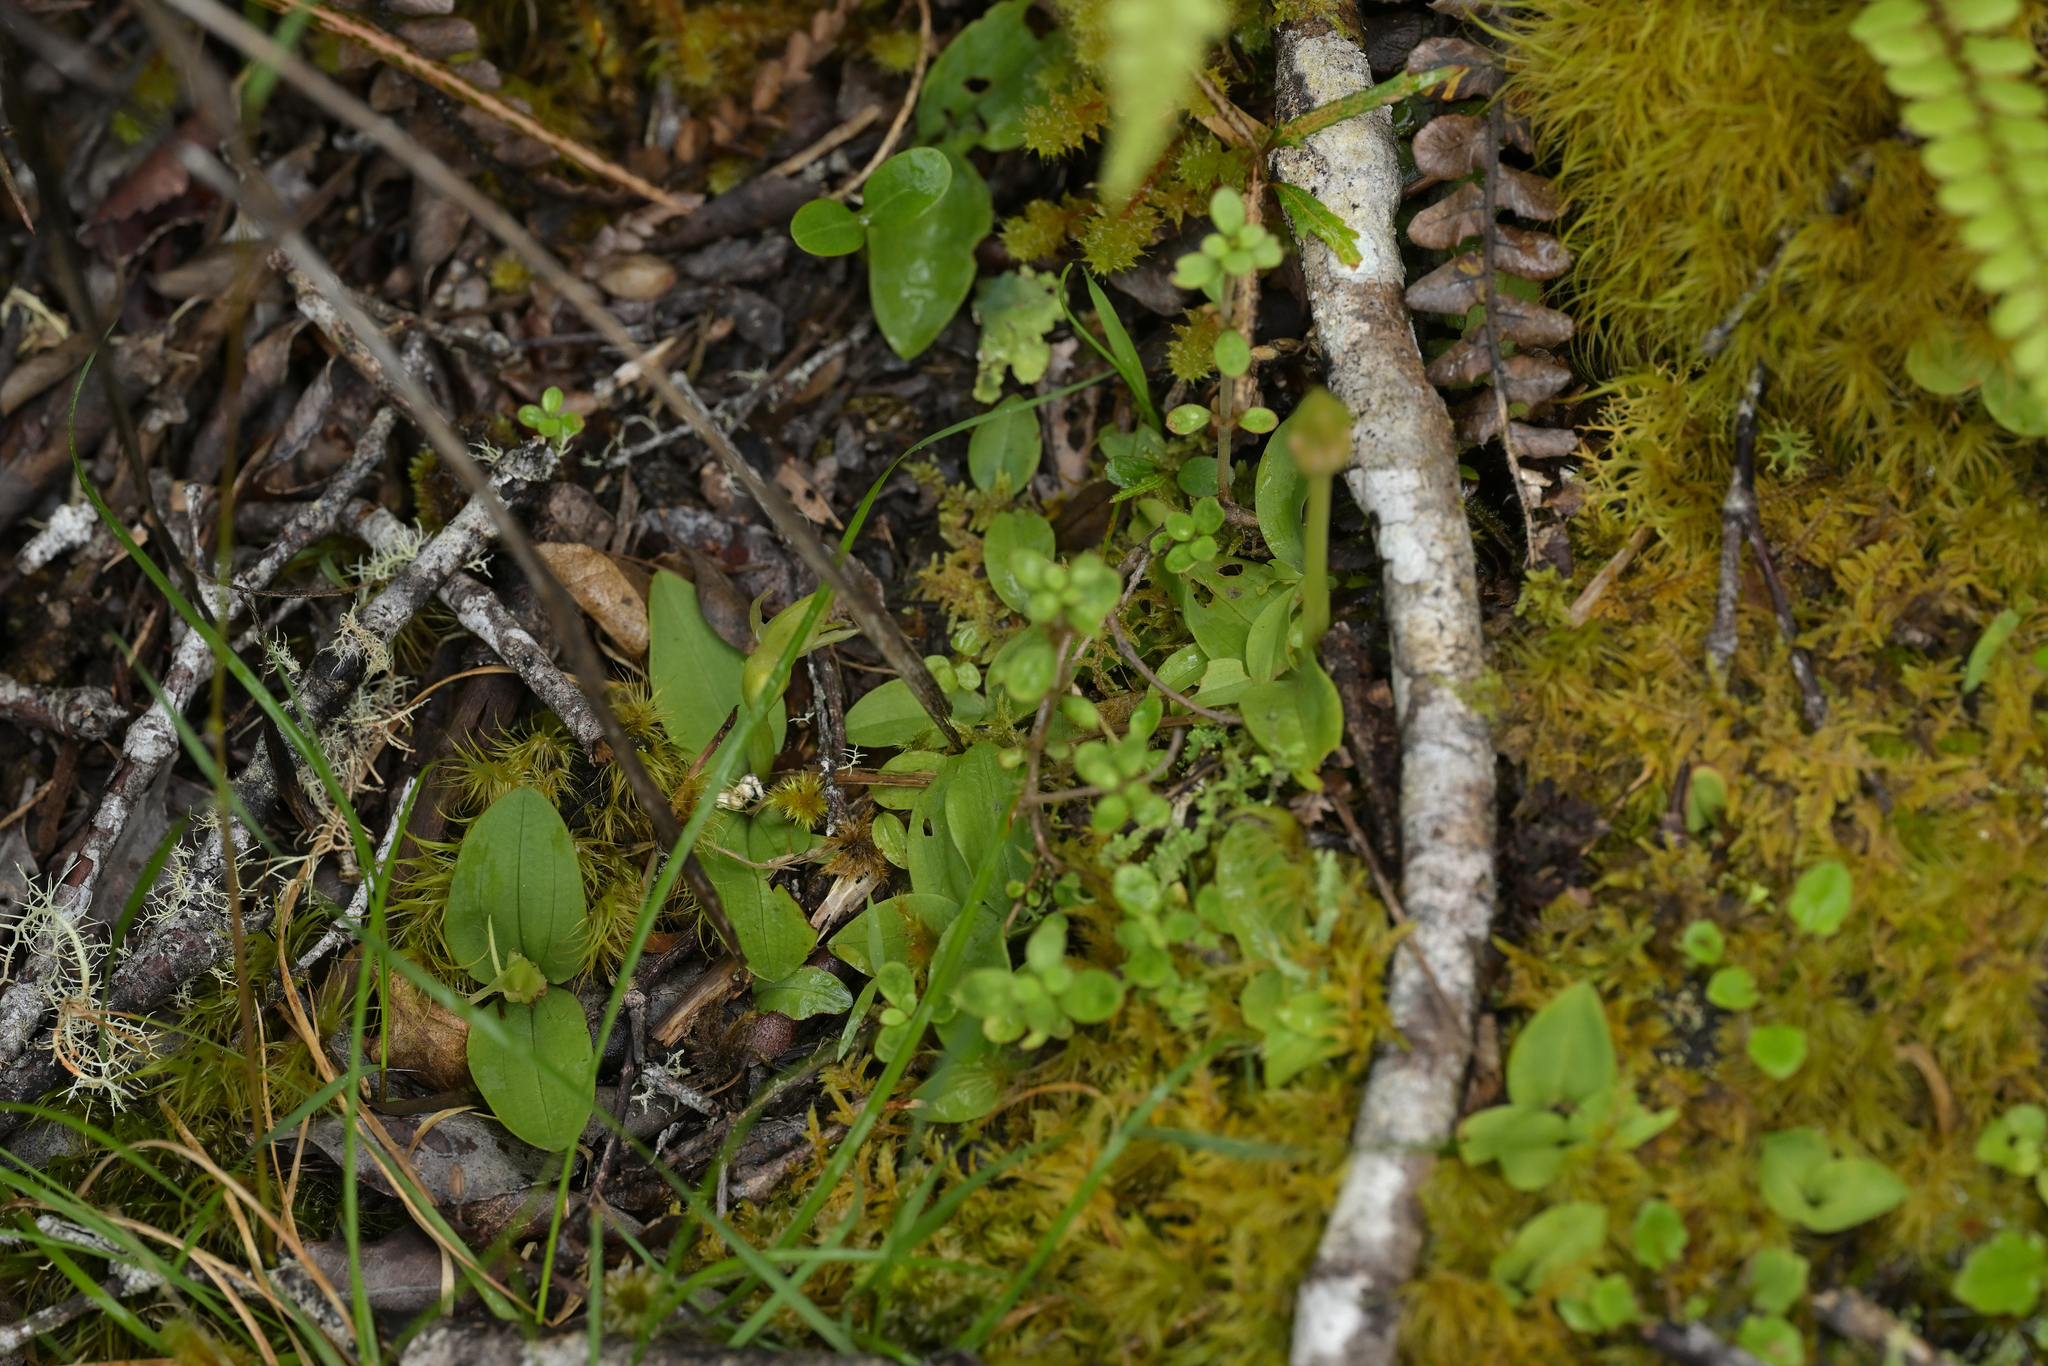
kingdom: Plantae
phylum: Tracheophyta
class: Liliopsida
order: Asparagales
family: Orchidaceae
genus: Chiloglottis
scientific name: Chiloglottis cornuta
